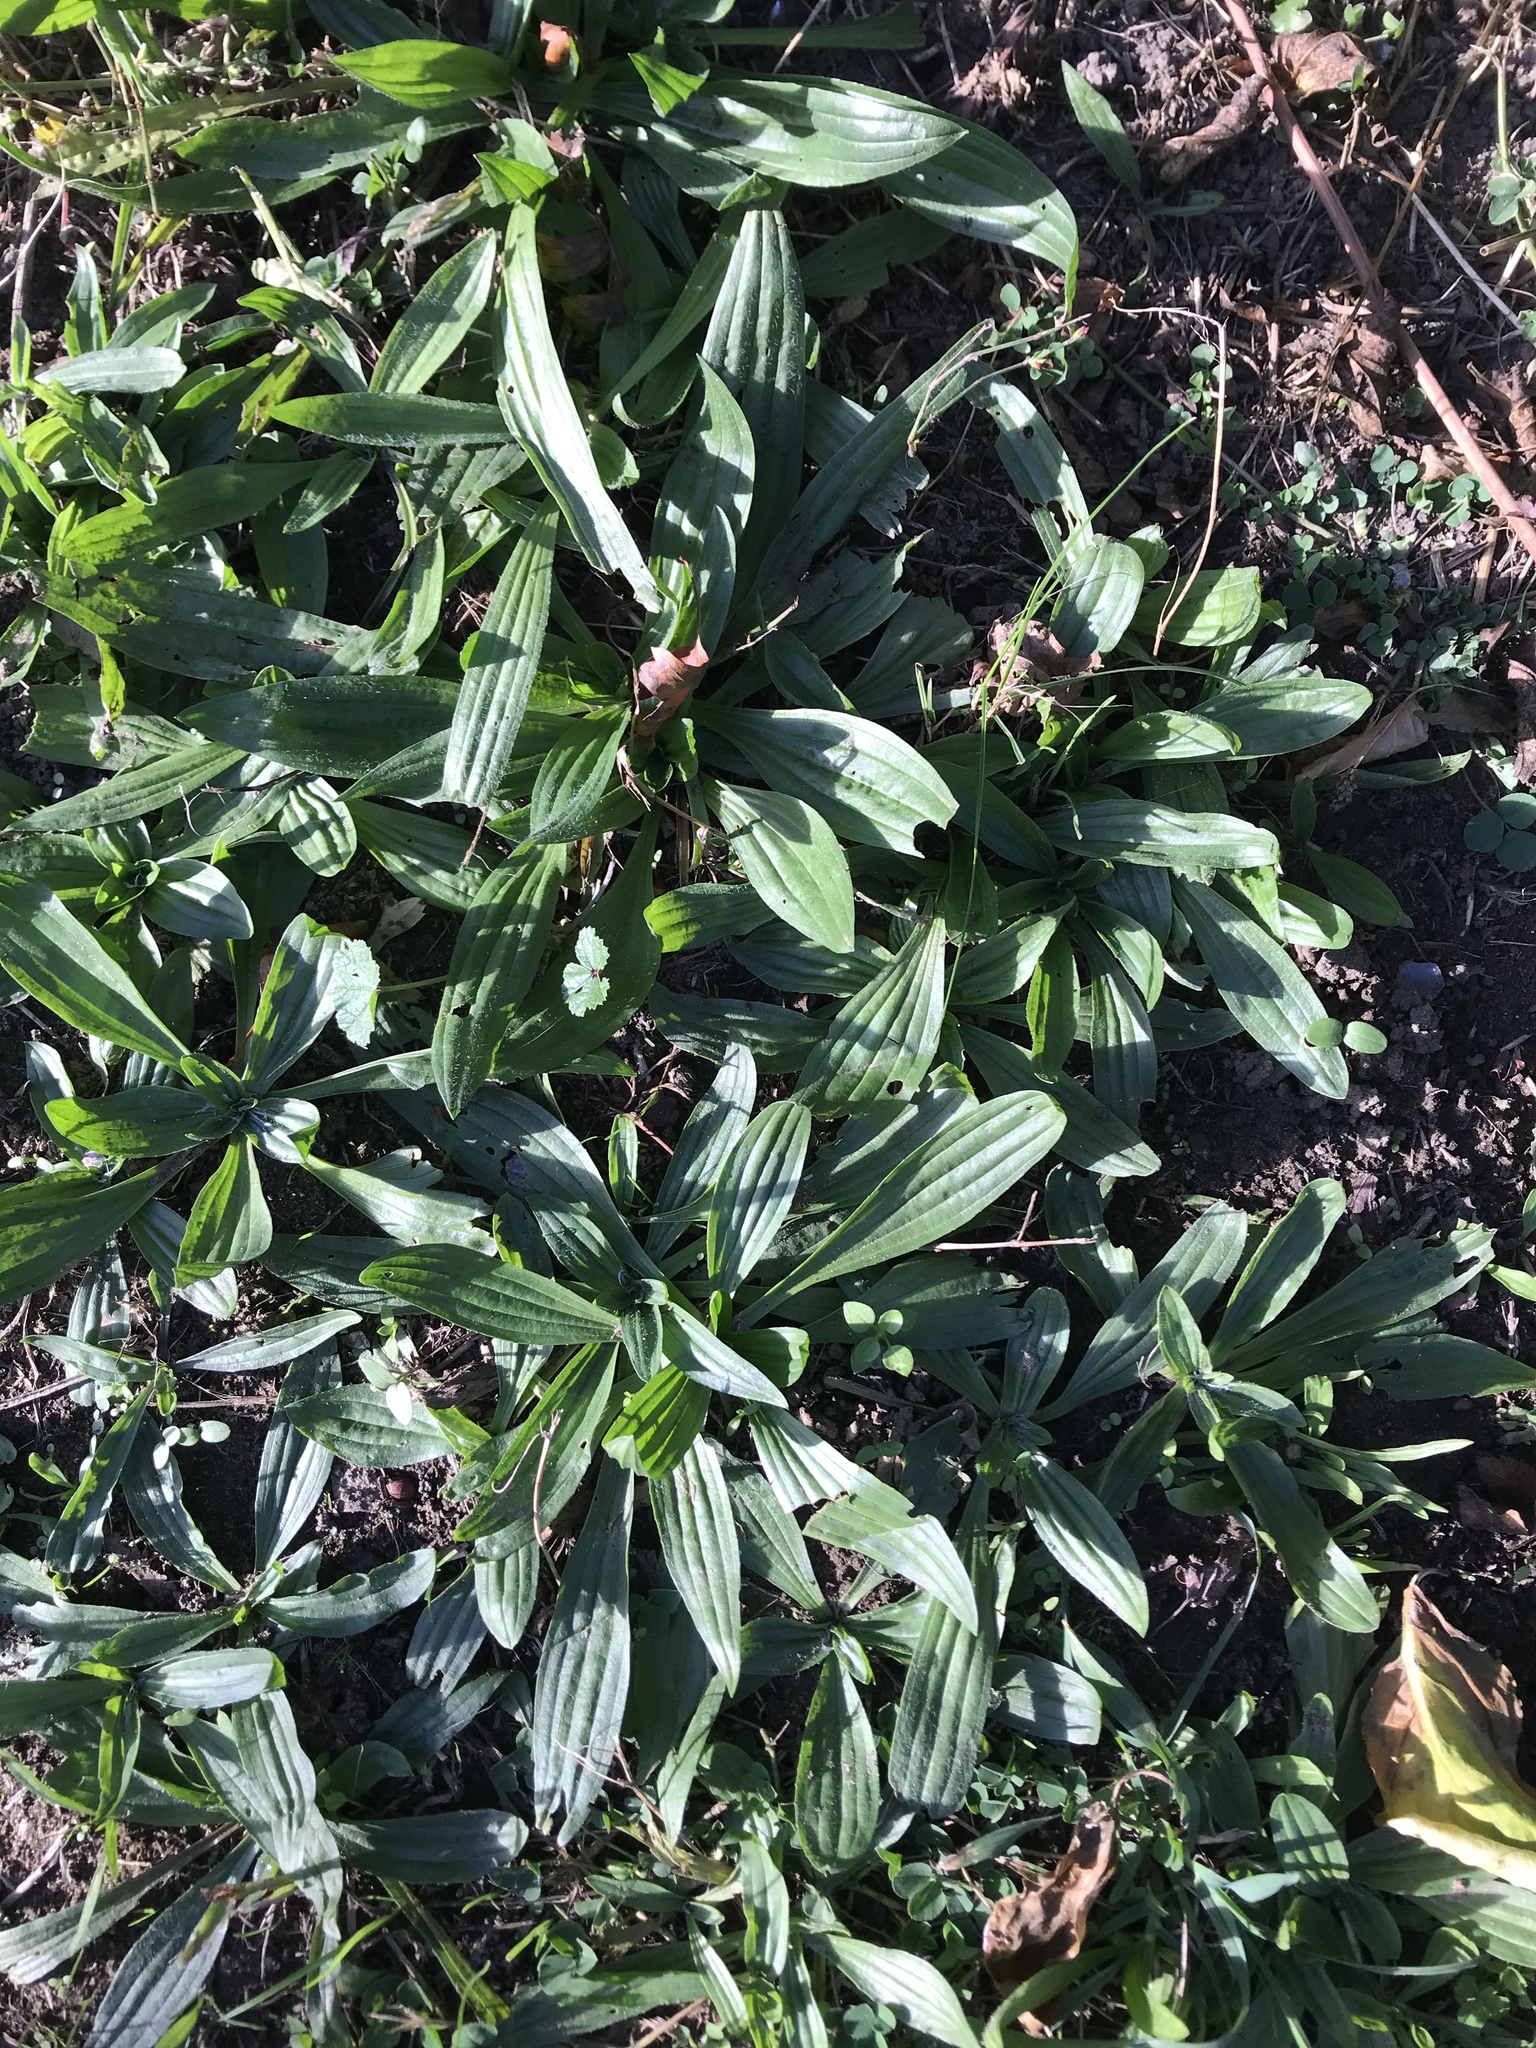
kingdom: Plantae
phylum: Tracheophyta
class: Magnoliopsida
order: Lamiales
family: Plantaginaceae
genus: Plantago
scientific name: Plantago lanceolata
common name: Ribwort plantain
